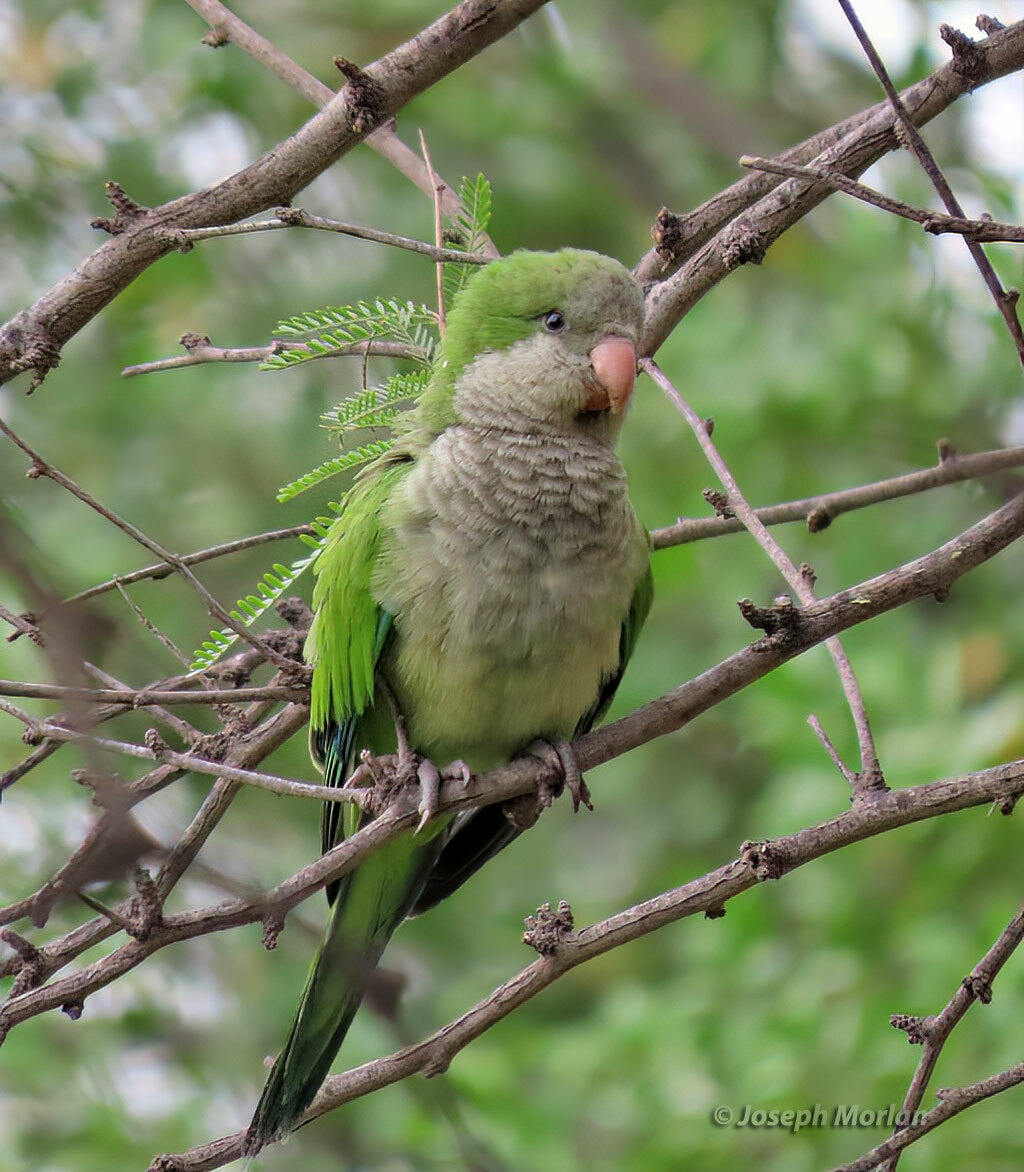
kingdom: Animalia
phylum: Chordata
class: Aves
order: Psittaciformes
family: Psittacidae
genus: Myiopsitta
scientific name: Myiopsitta monachus
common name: Monk parakeet
